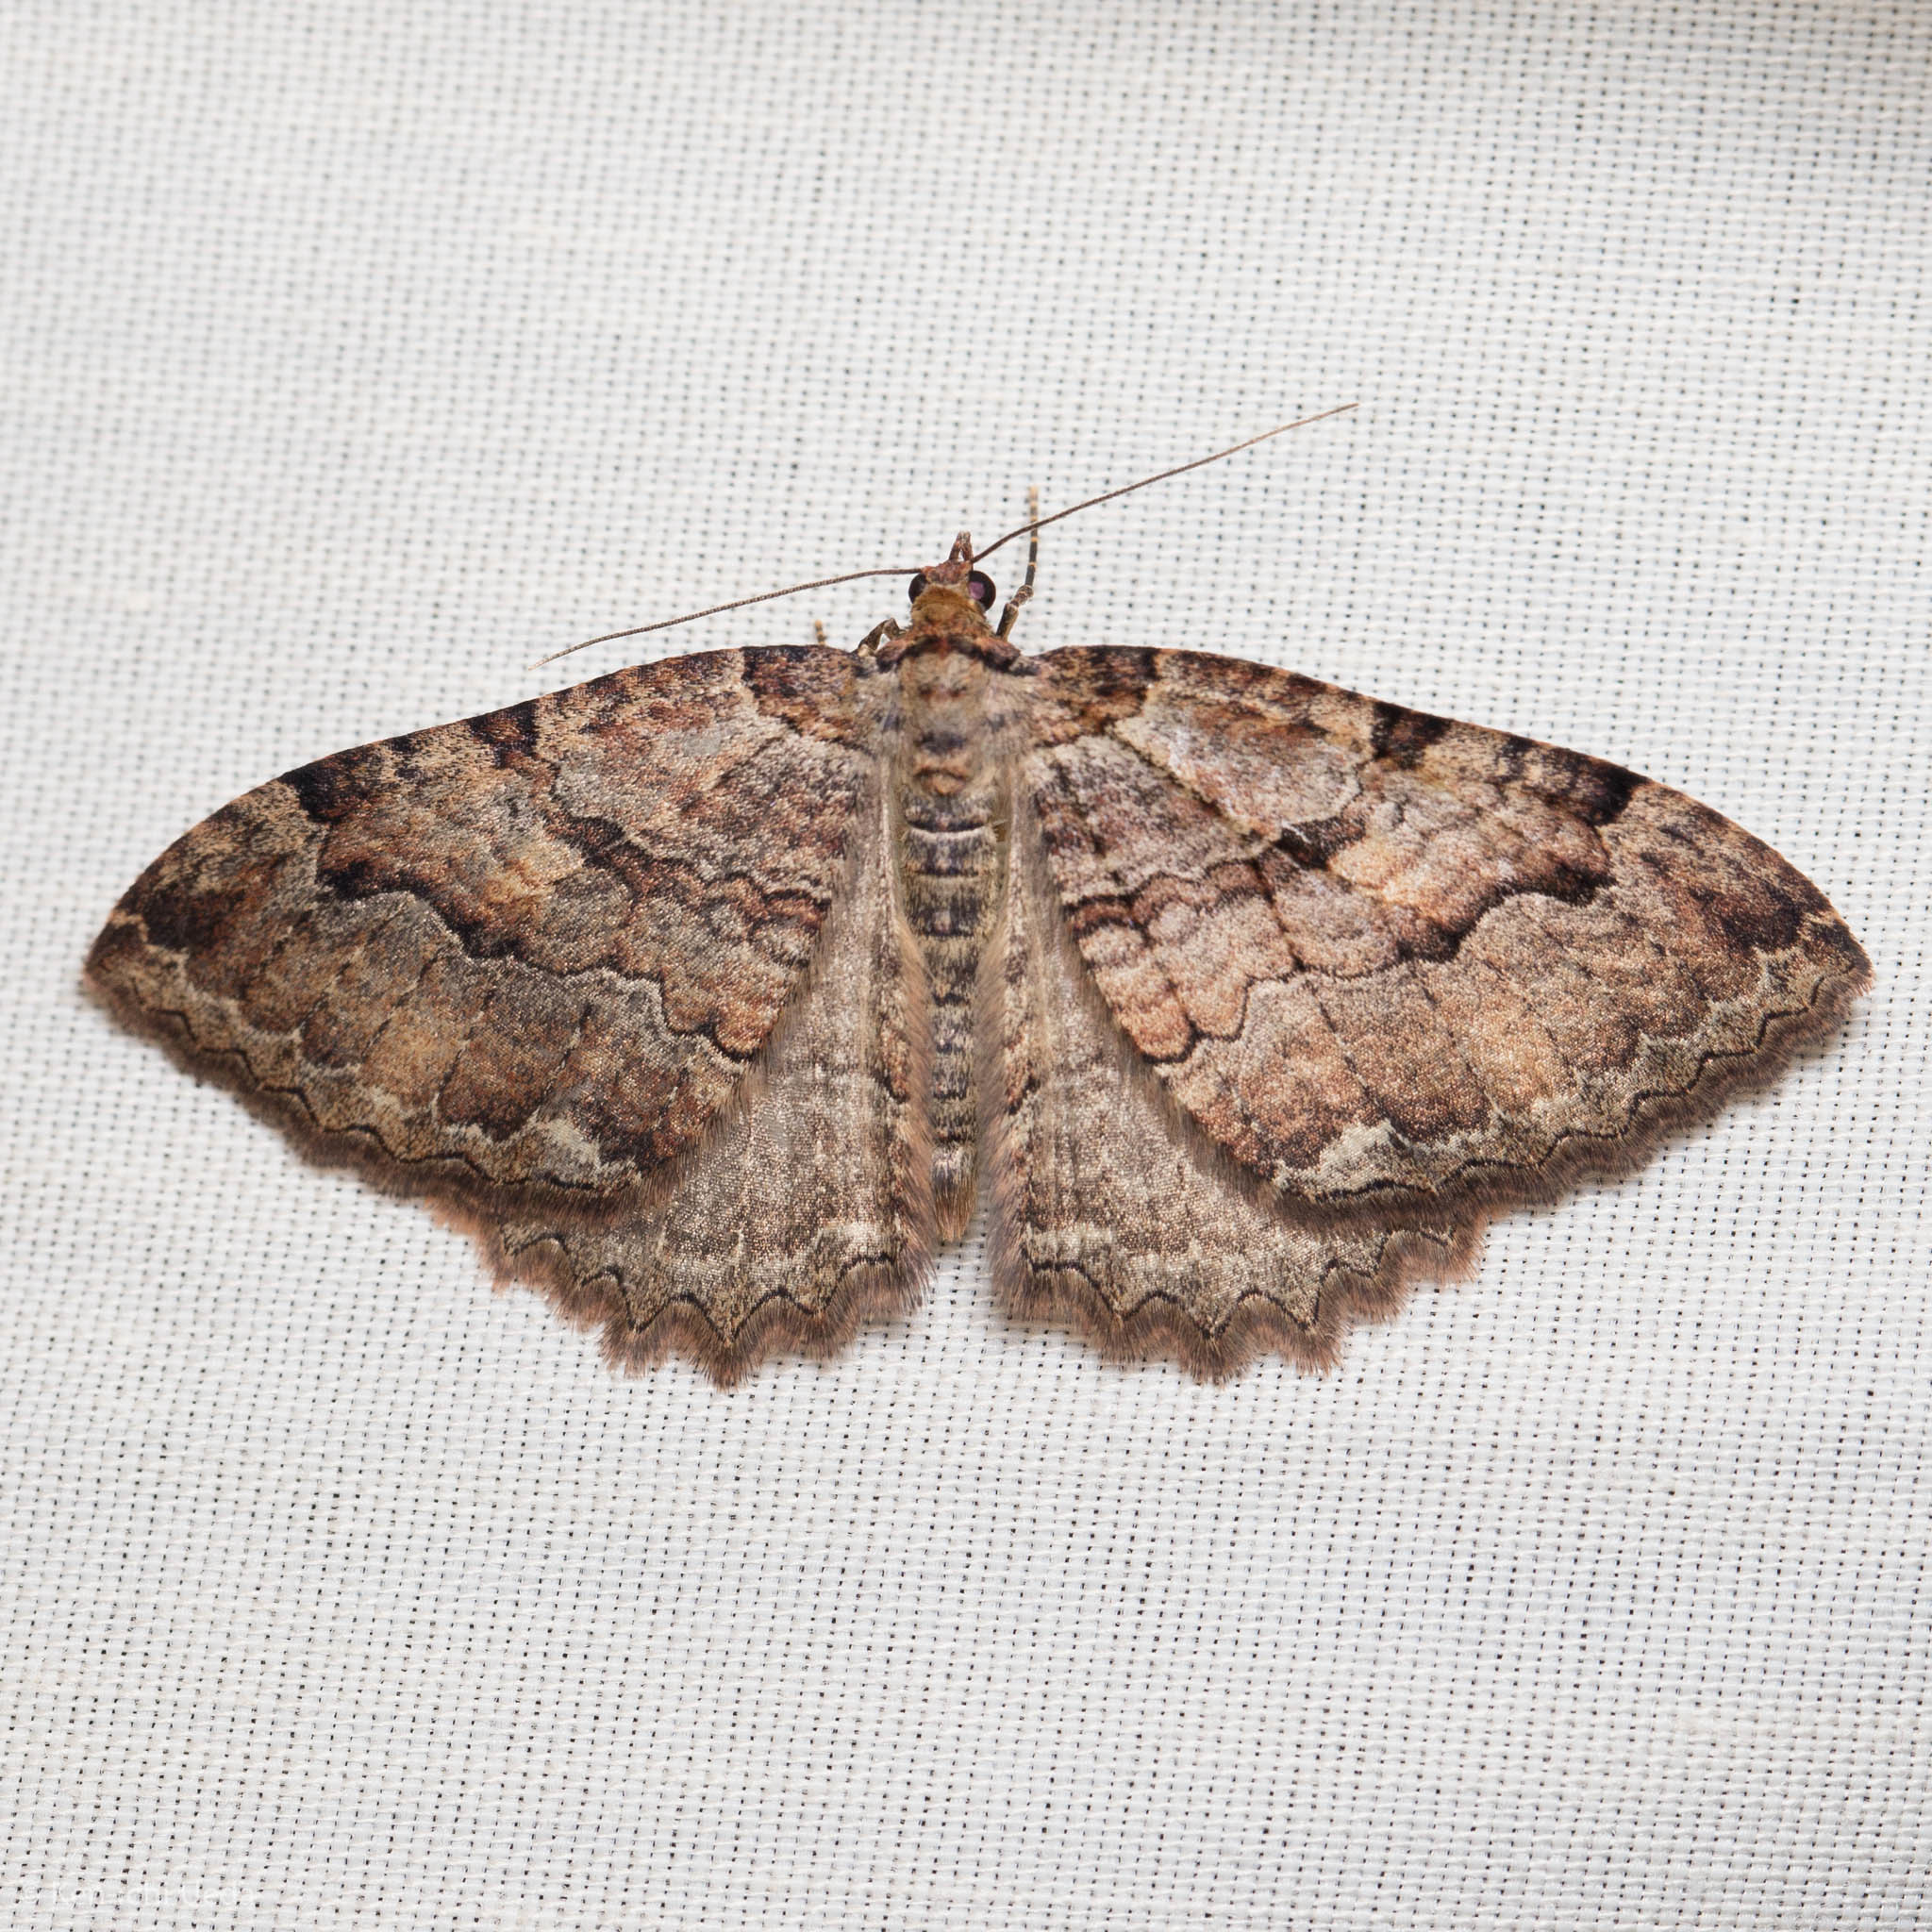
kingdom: Animalia
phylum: Arthropoda
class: Insecta
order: Lepidoptera
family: Geometridae
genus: Triphosa
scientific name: Triphosa haesitata
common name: Tissue moth
